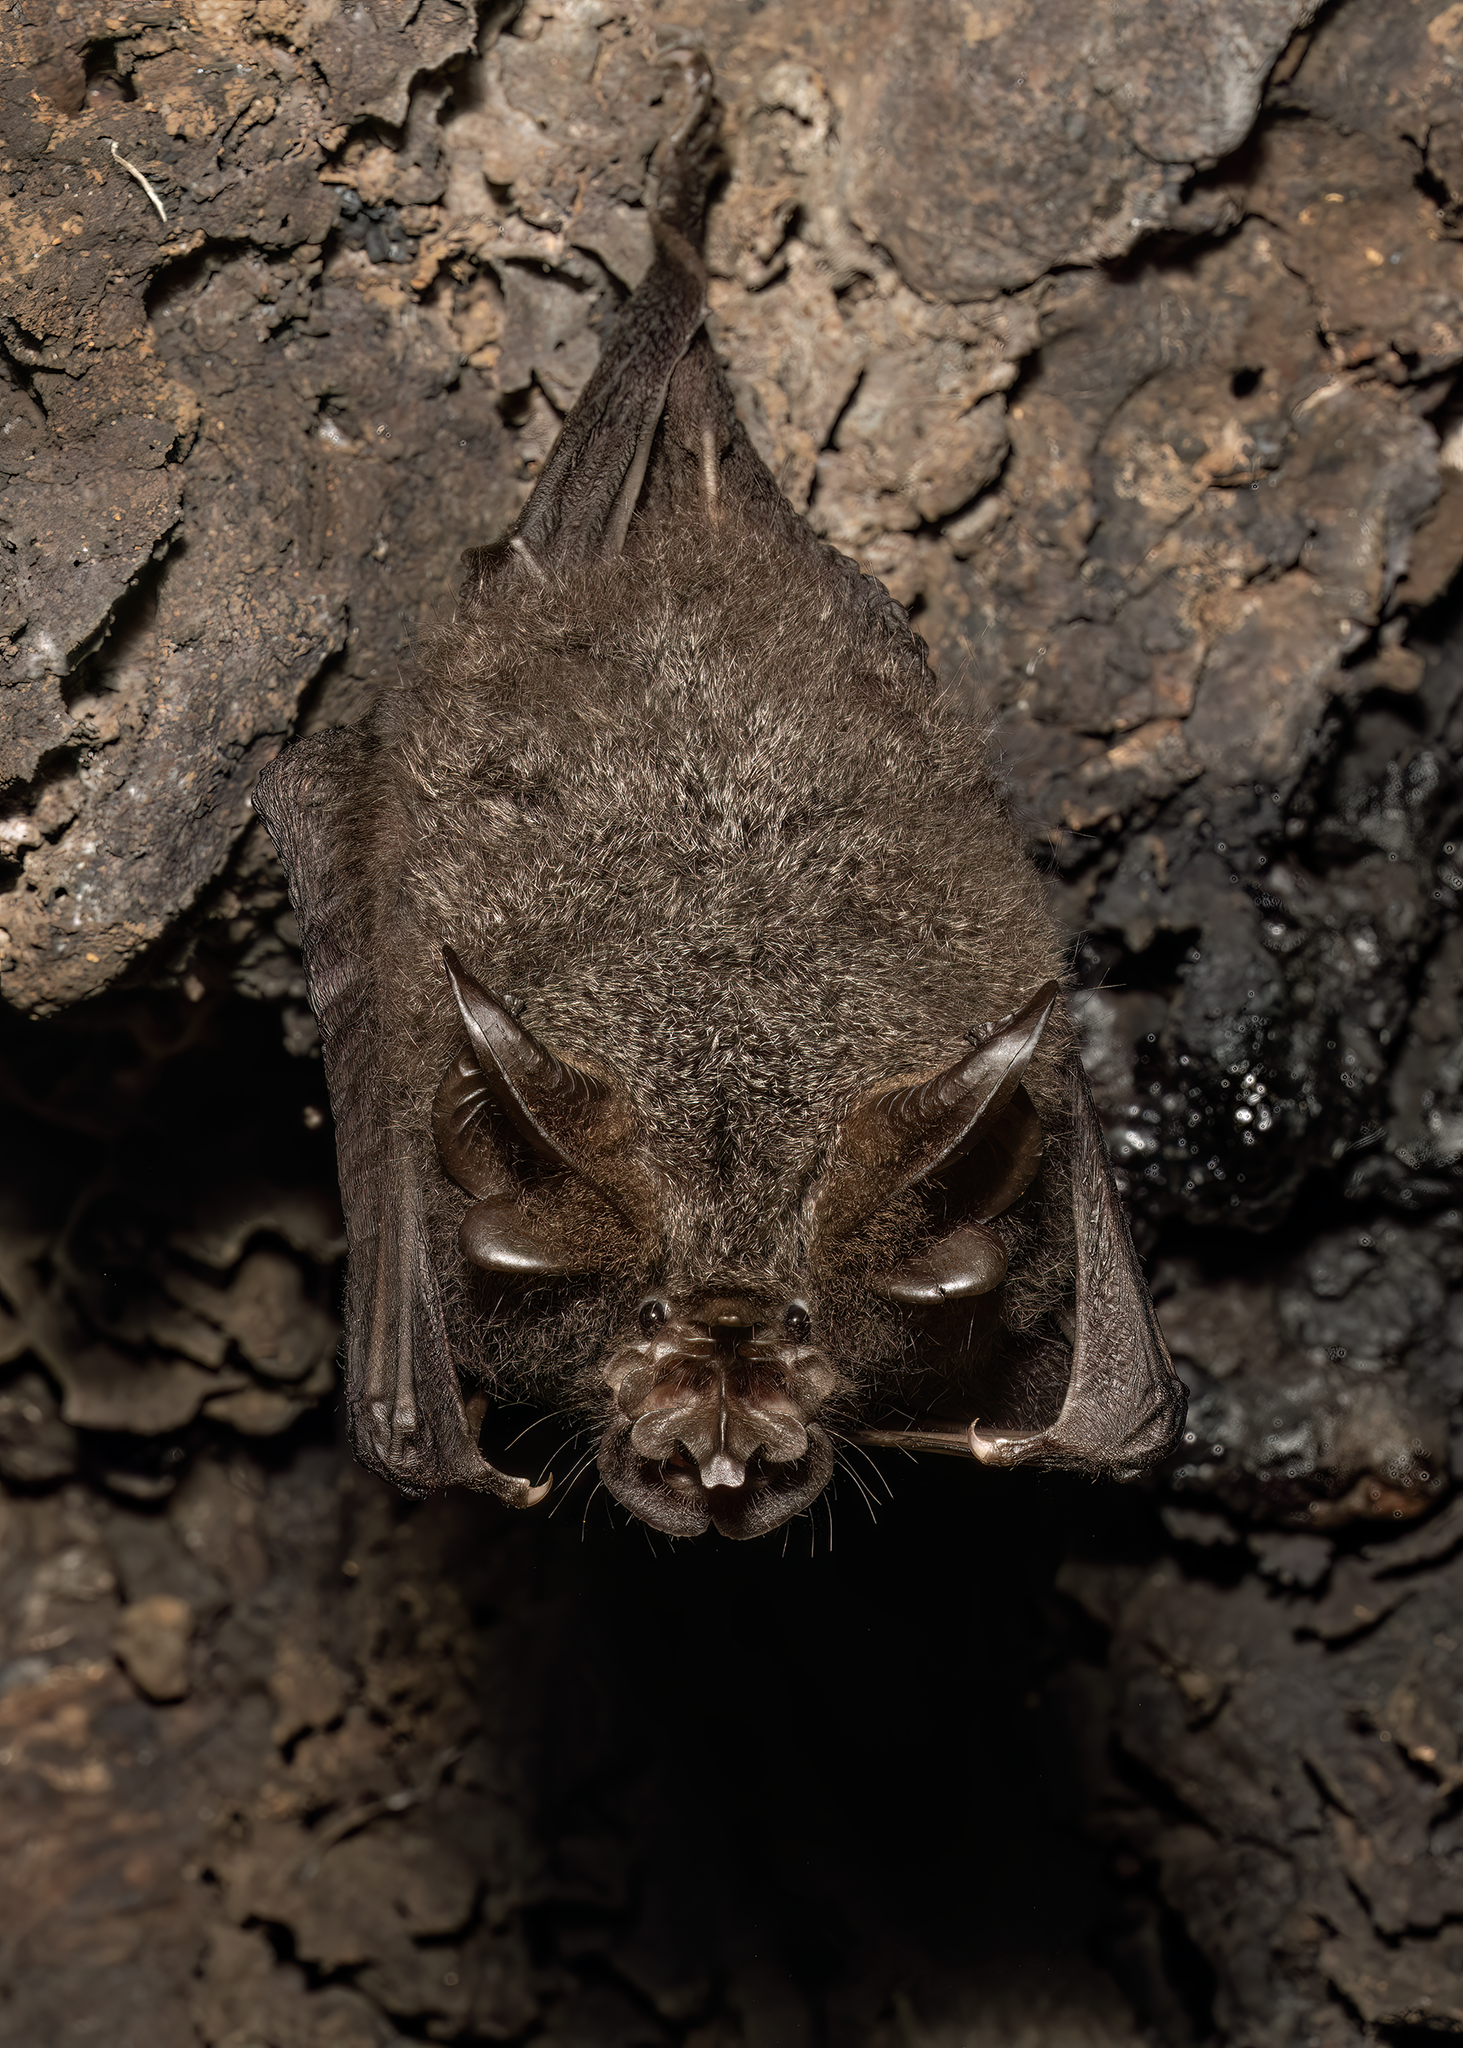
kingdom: Animalia
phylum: Chordata
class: Mammalia
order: Chiroptera
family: Rhinolophidae
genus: Rhinolophus
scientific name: Rhinolophus luctus
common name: Woolly horseshoe bat
